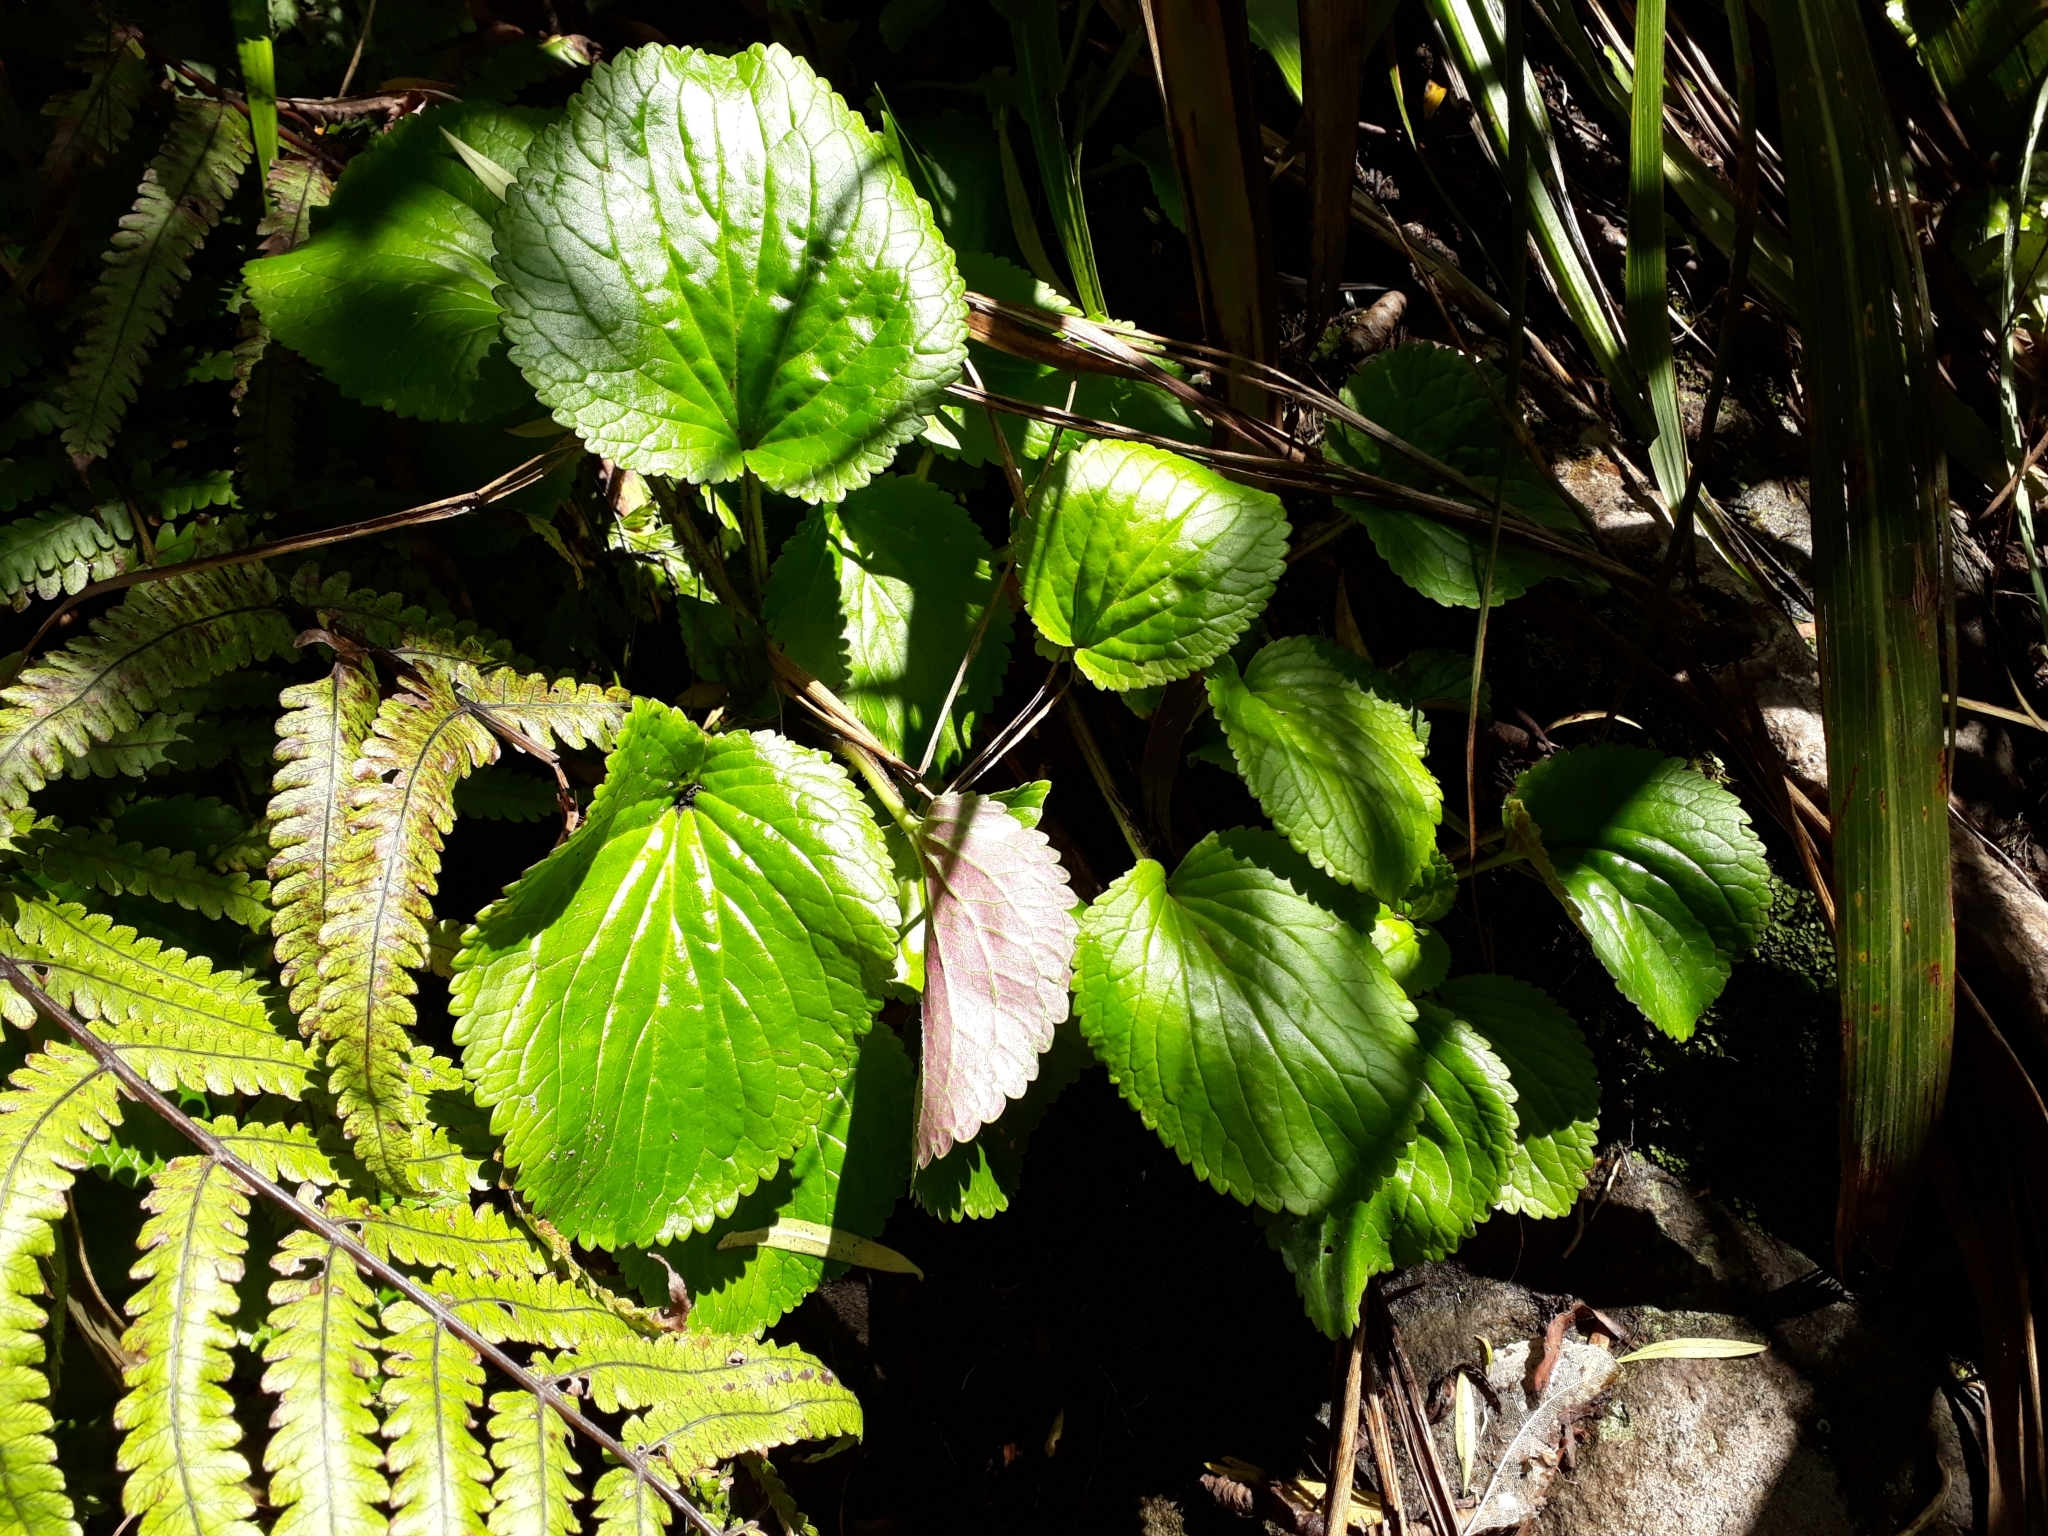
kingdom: Plantae
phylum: Tracheophyta
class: Magnoliopsida
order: Lamiales
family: Plantaginaceae
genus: Ourisia
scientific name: Ourisia macrophylla
